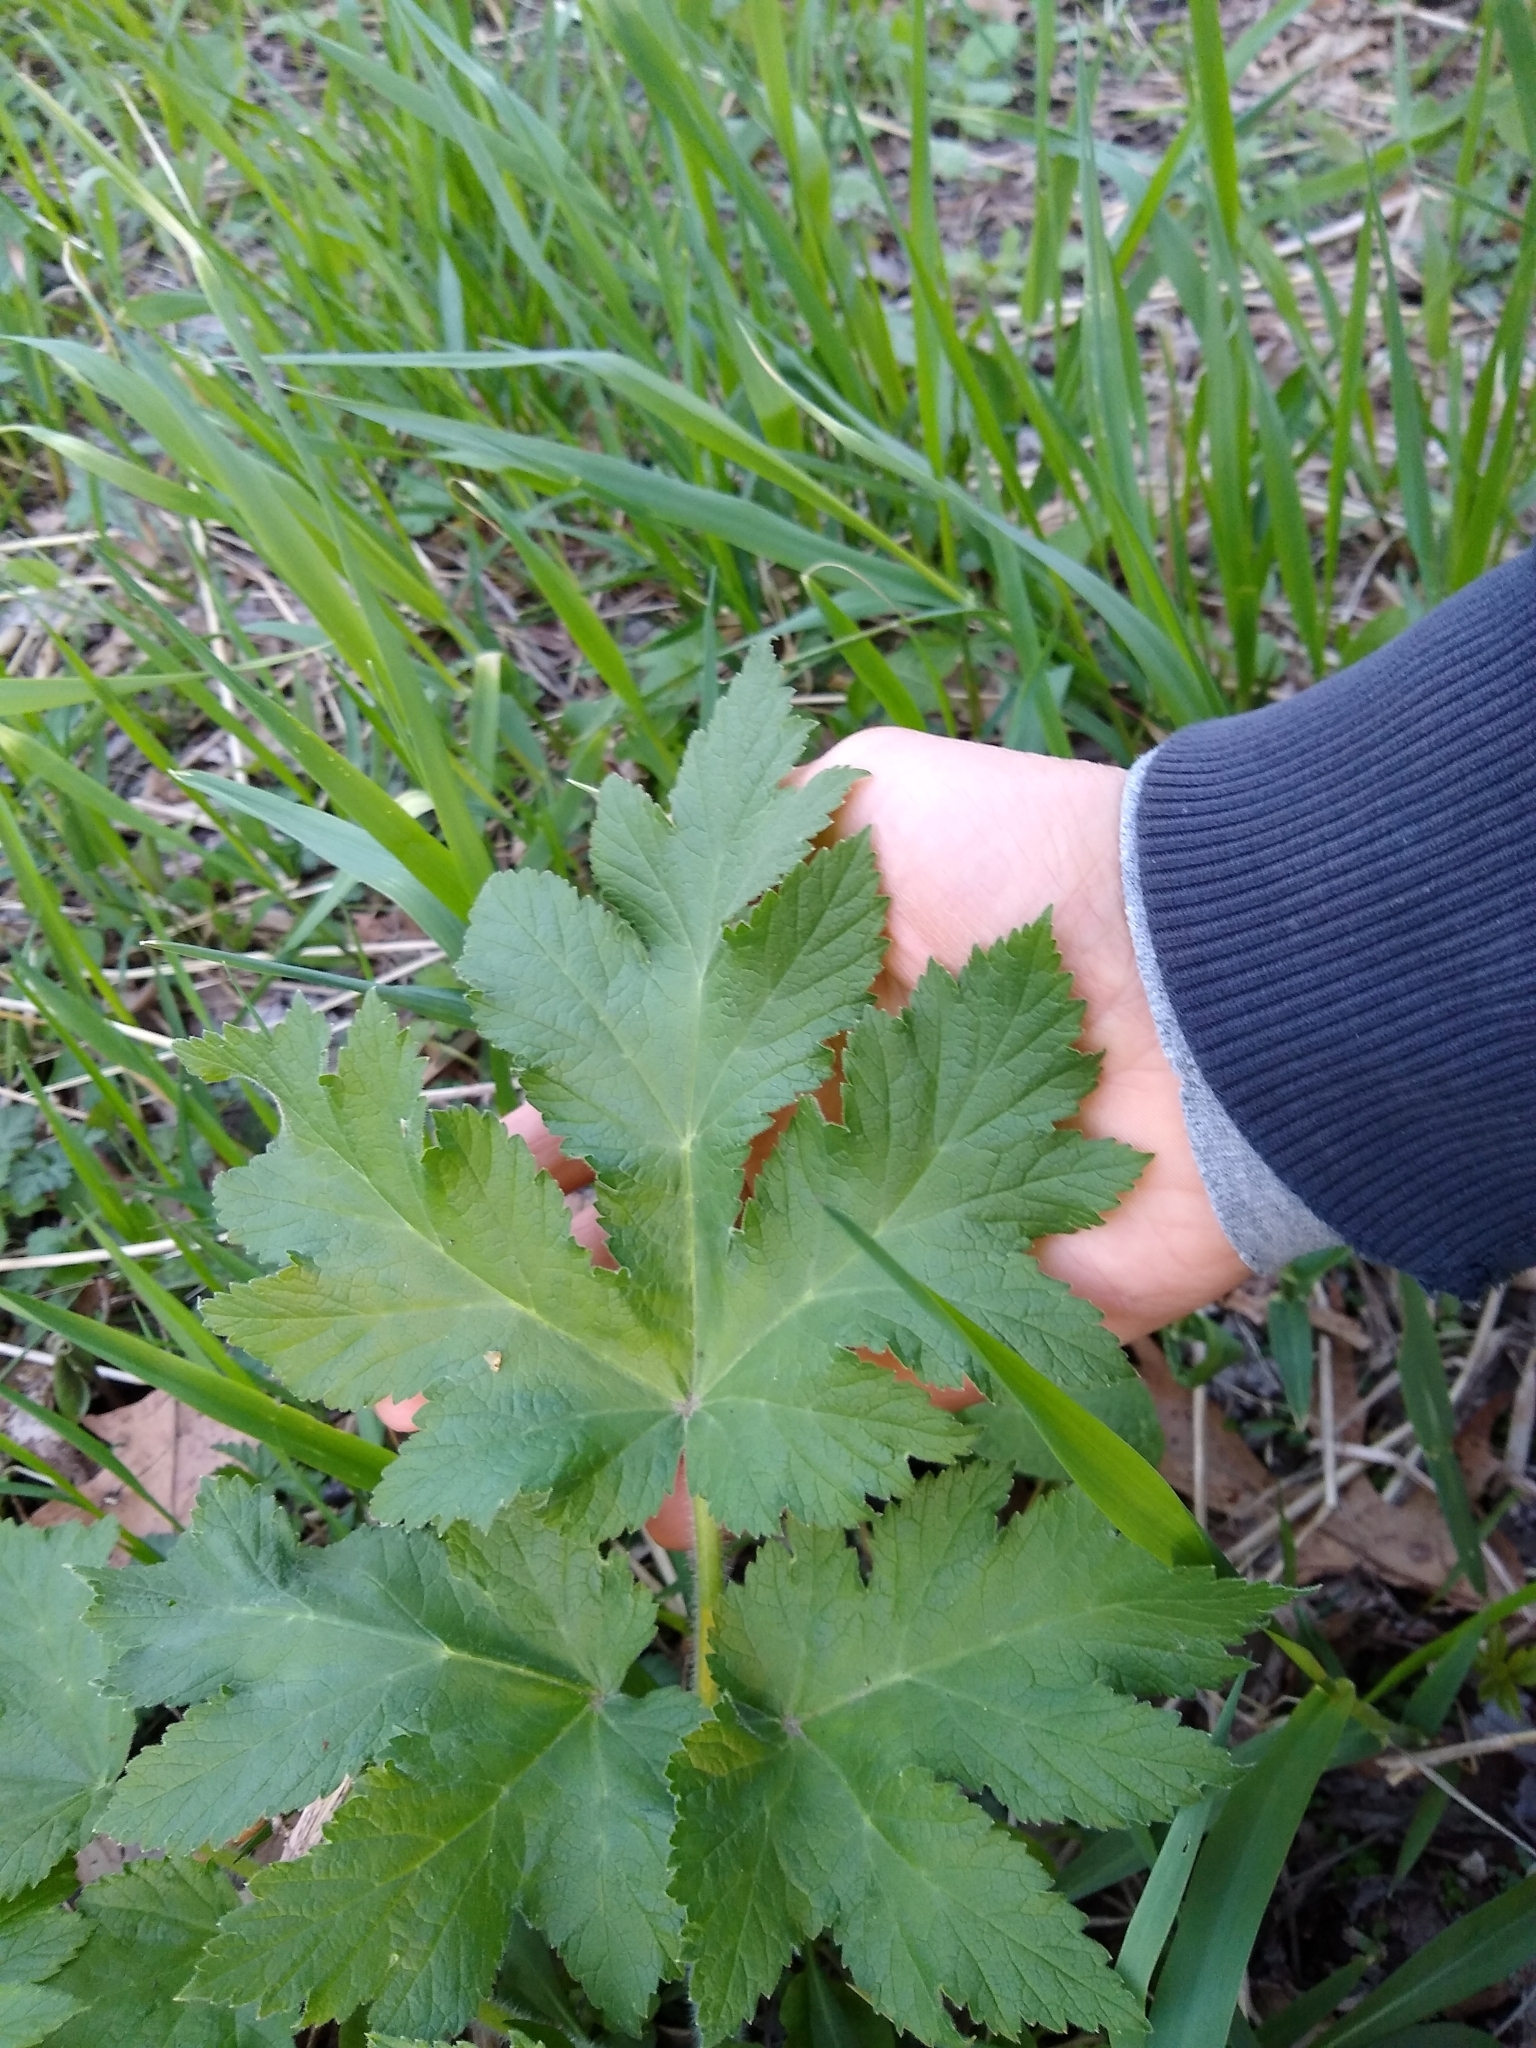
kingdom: Plantae
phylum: Tracheophyta
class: Magnoliopsida
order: Apiales
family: Apiaceae
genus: Heracleum
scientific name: Heracleum maximum
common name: American cow parsnip
